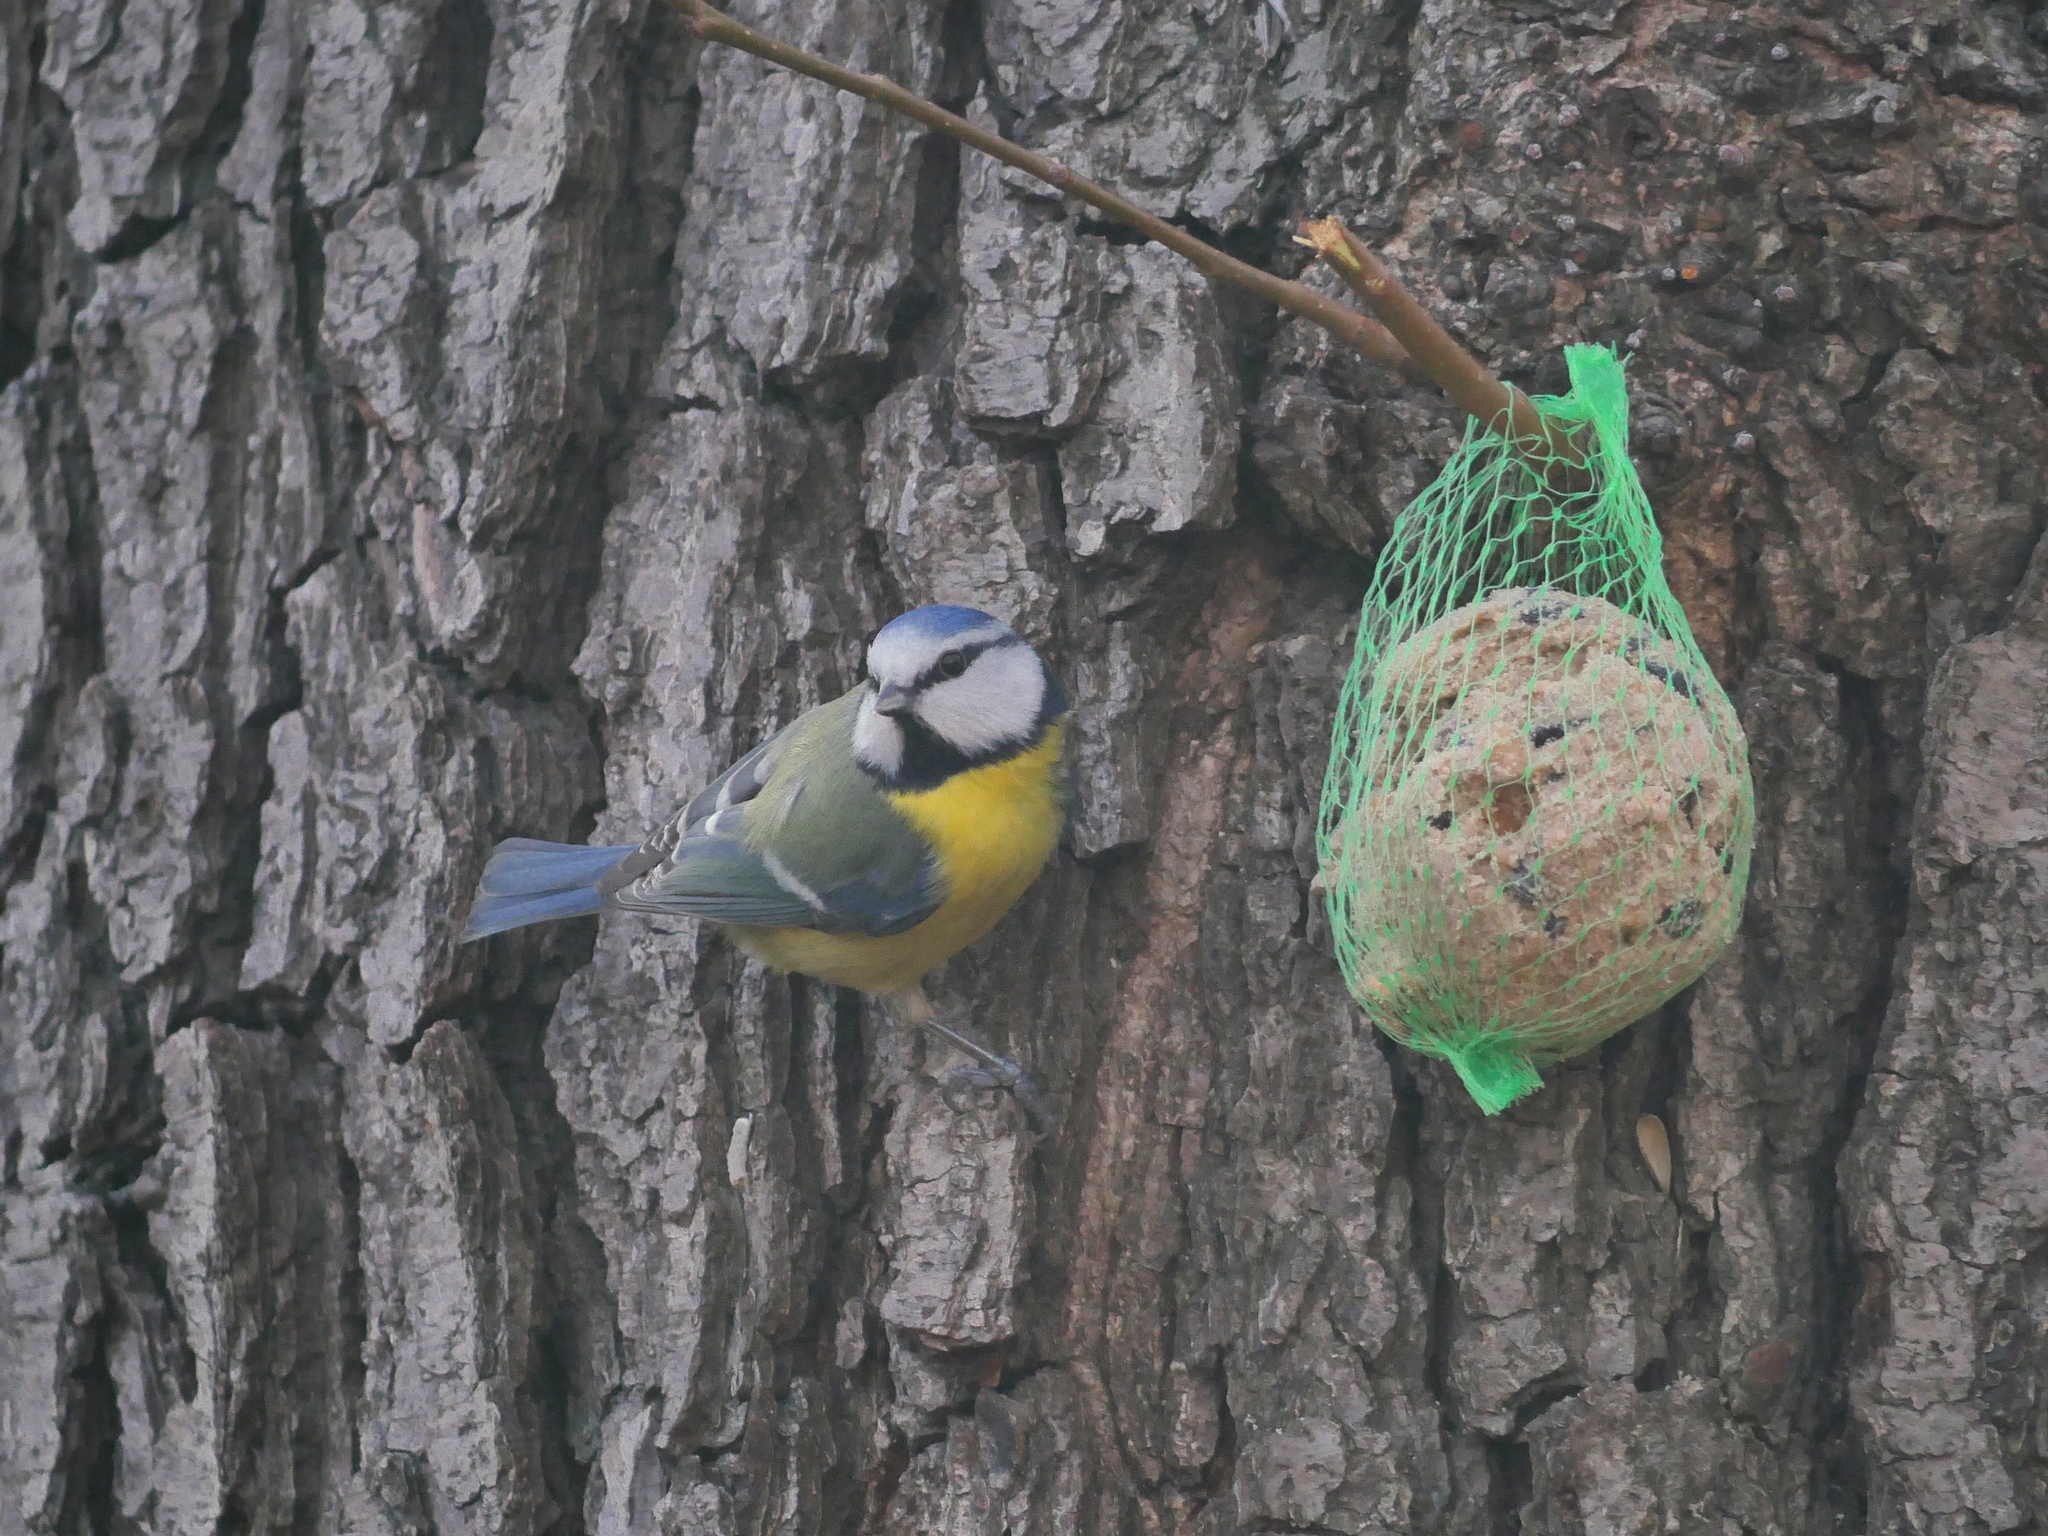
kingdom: Animalia
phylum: Chordata
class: Aves
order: Passeriformes
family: Paridae
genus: Cyanistes
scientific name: Cyanistes caeruleus
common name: Eurasian blue tit
